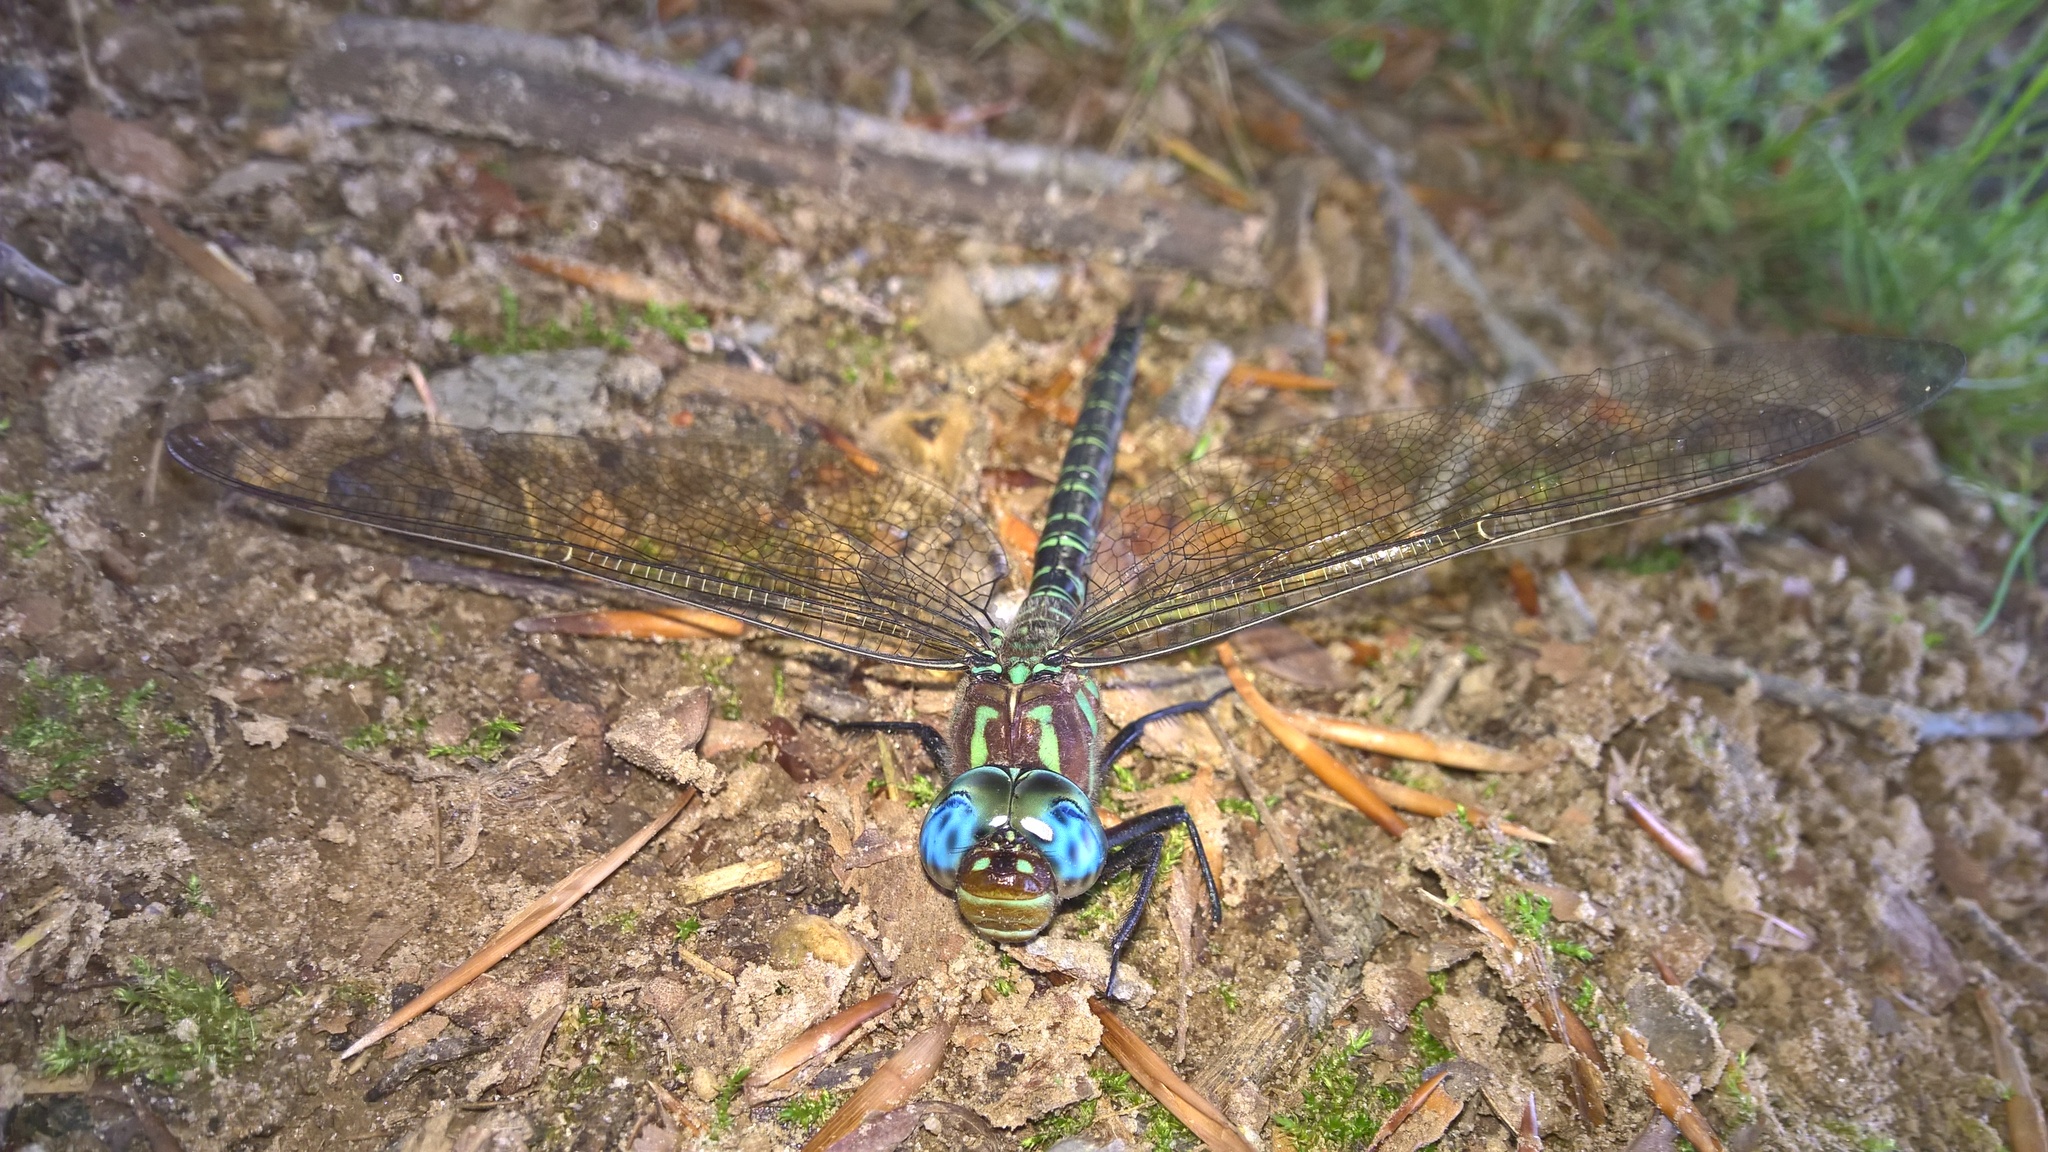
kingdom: Animalia
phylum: Arthropoda
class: Insecta
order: Odonata
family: Aeshnidae
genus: Epiaeschna
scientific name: Epiaeschna heros
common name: Swamp darner
